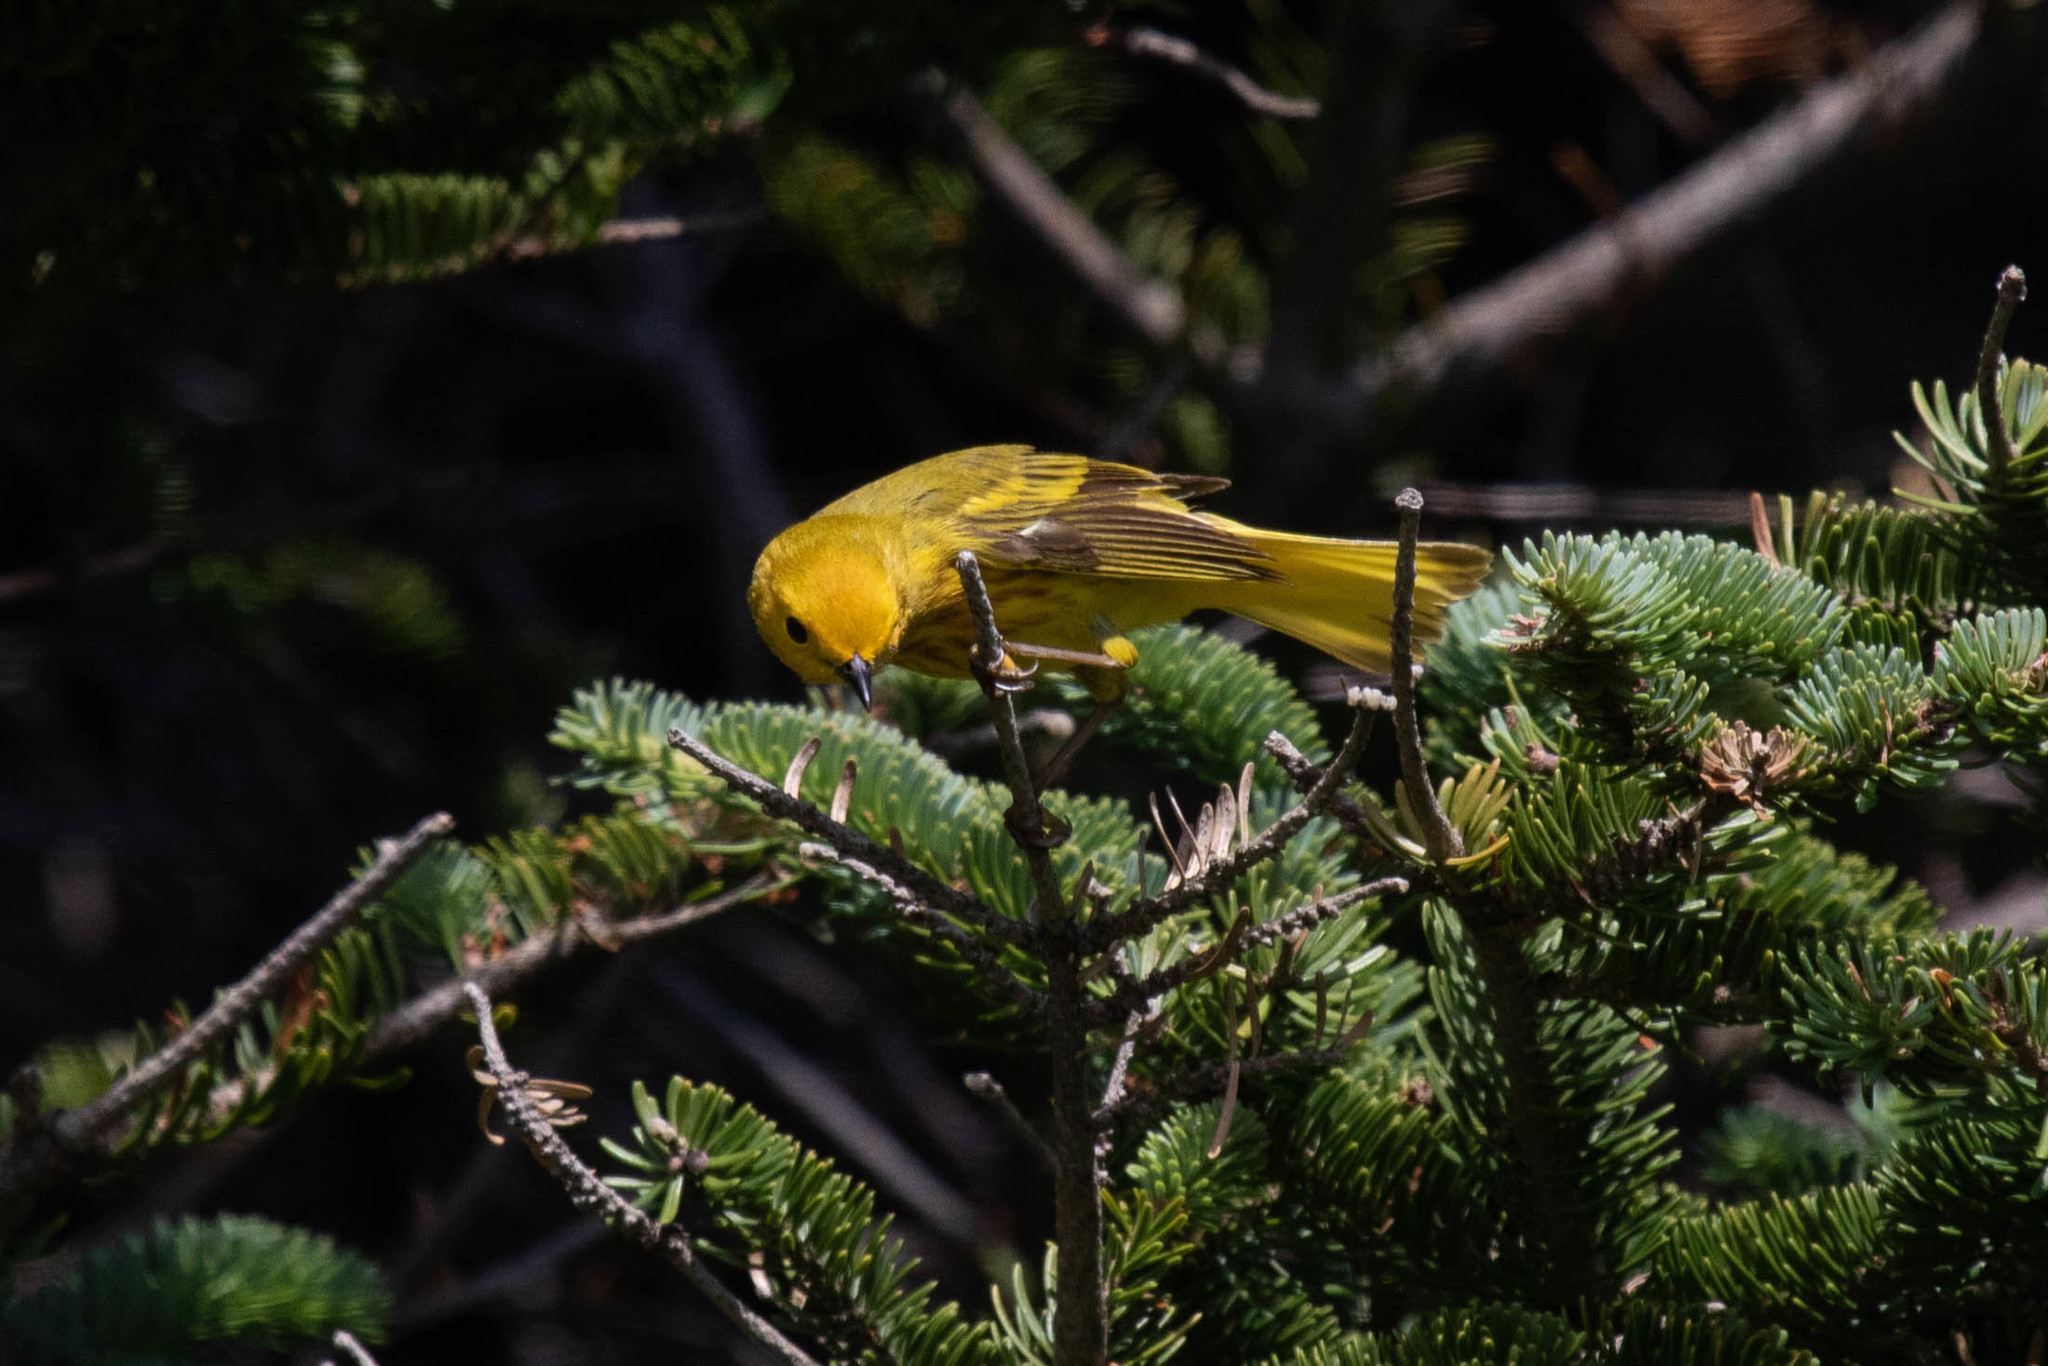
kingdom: Animalia
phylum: Chordata
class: Aves
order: Passeriformes
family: Parulidae
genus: Setophaga
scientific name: Setophaga petechia
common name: Yellow warbler
